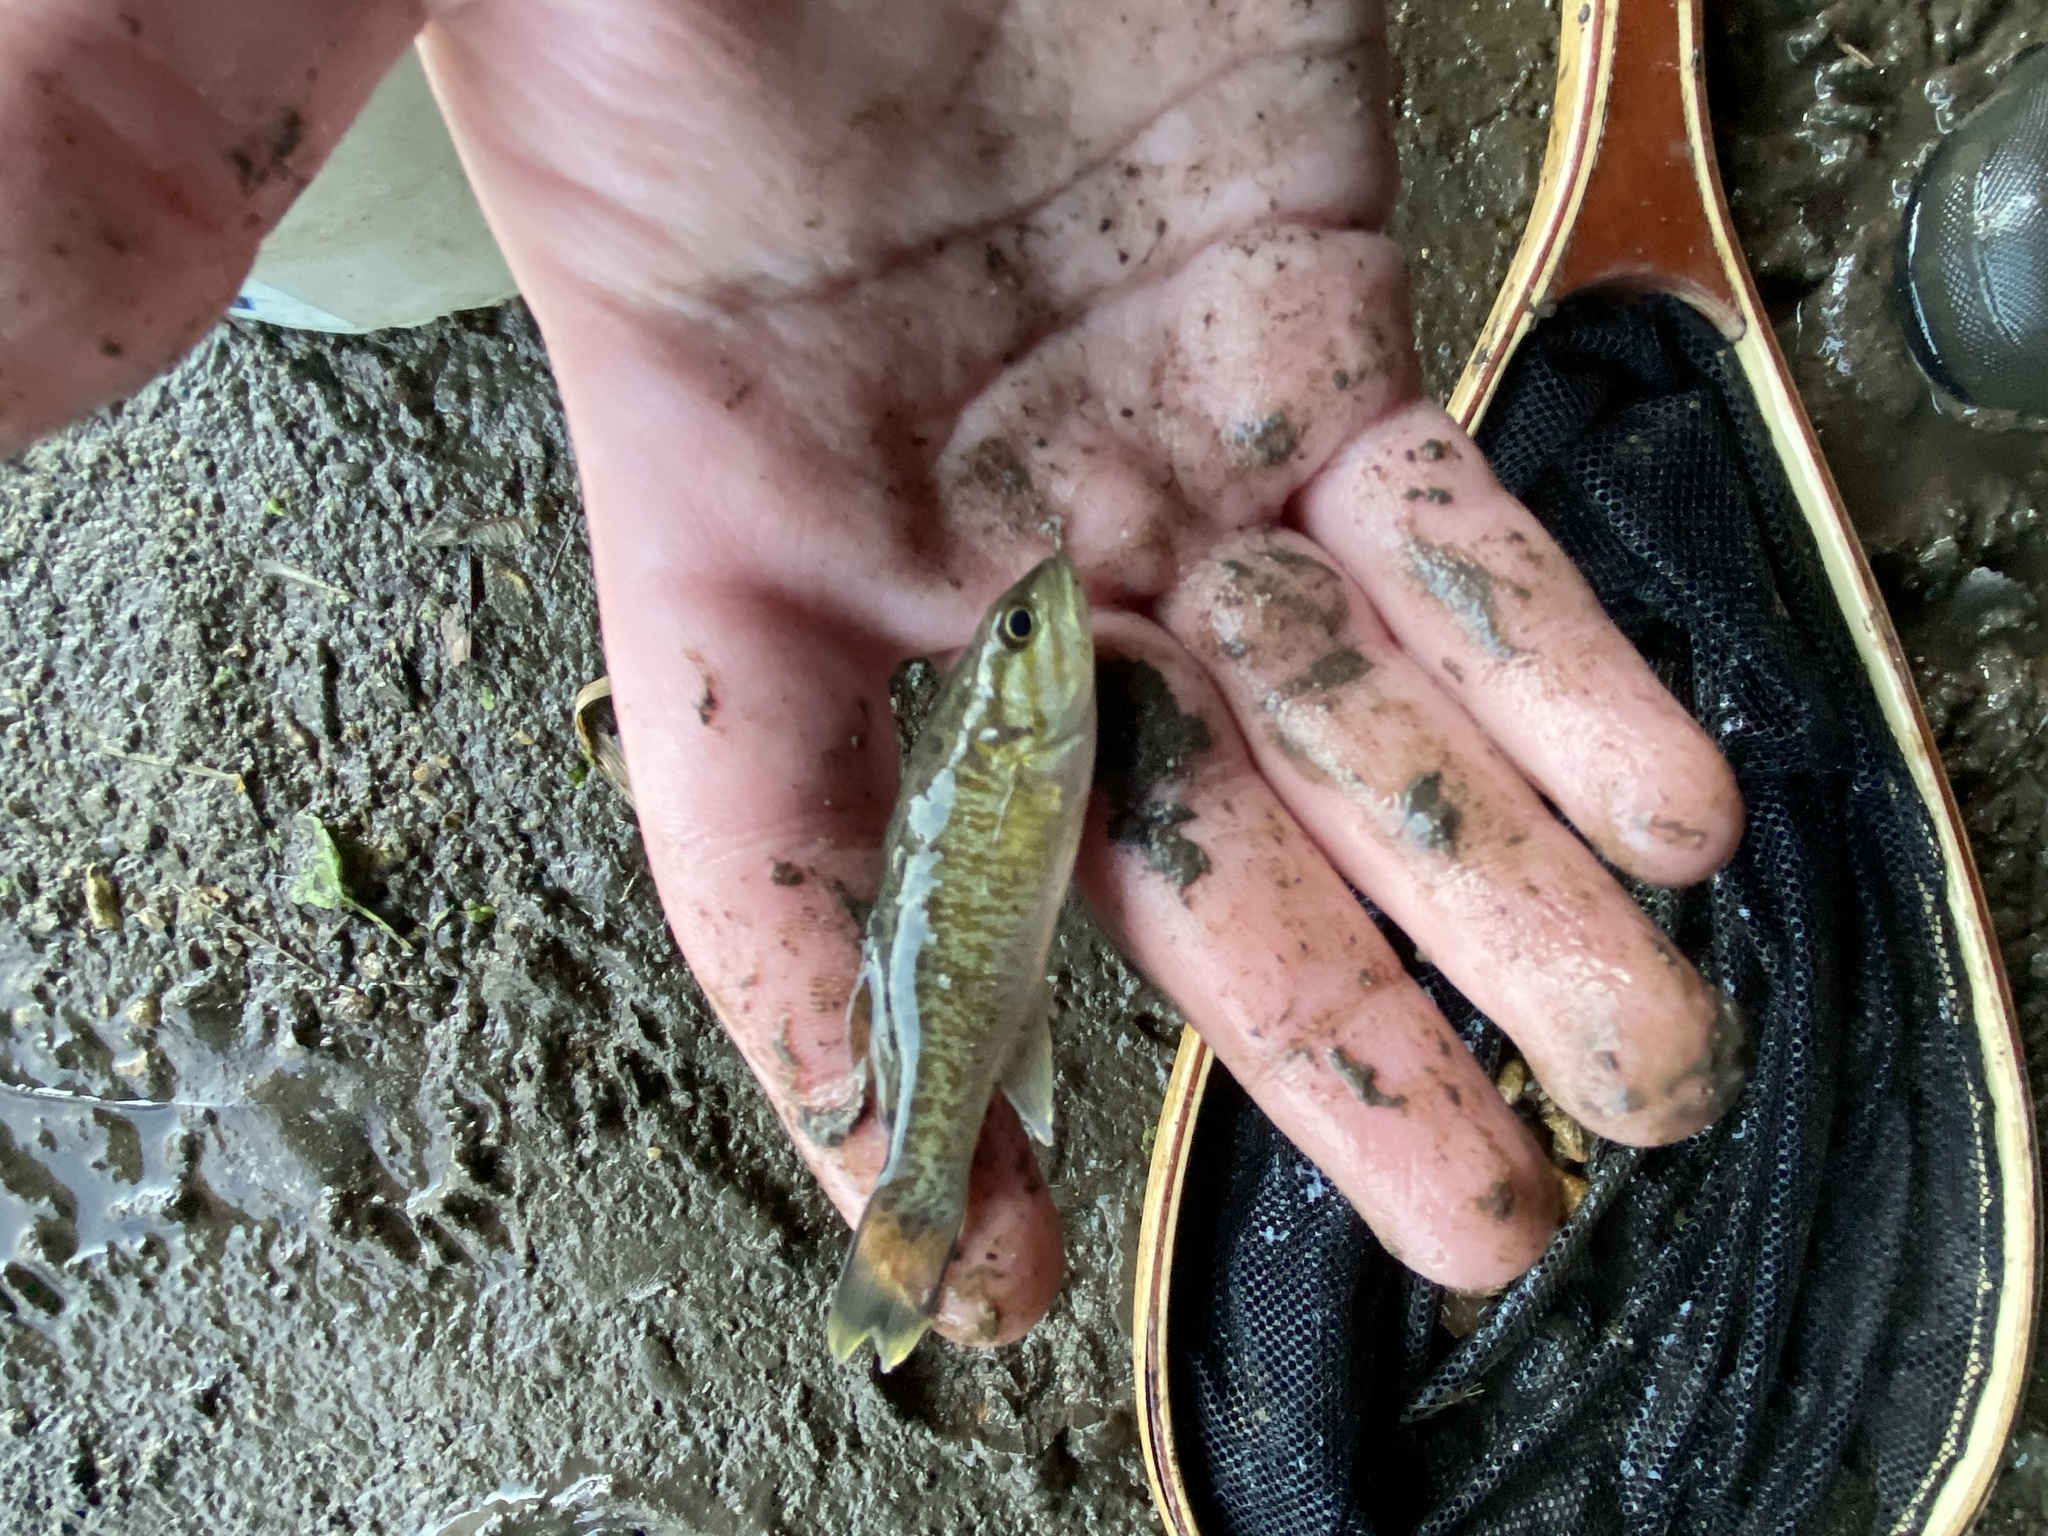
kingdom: Animalia
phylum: Chordata
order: Perciformes
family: Centrarchidae
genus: Micropterus
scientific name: Micropterus dolomieu
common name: Smallmouth bass
